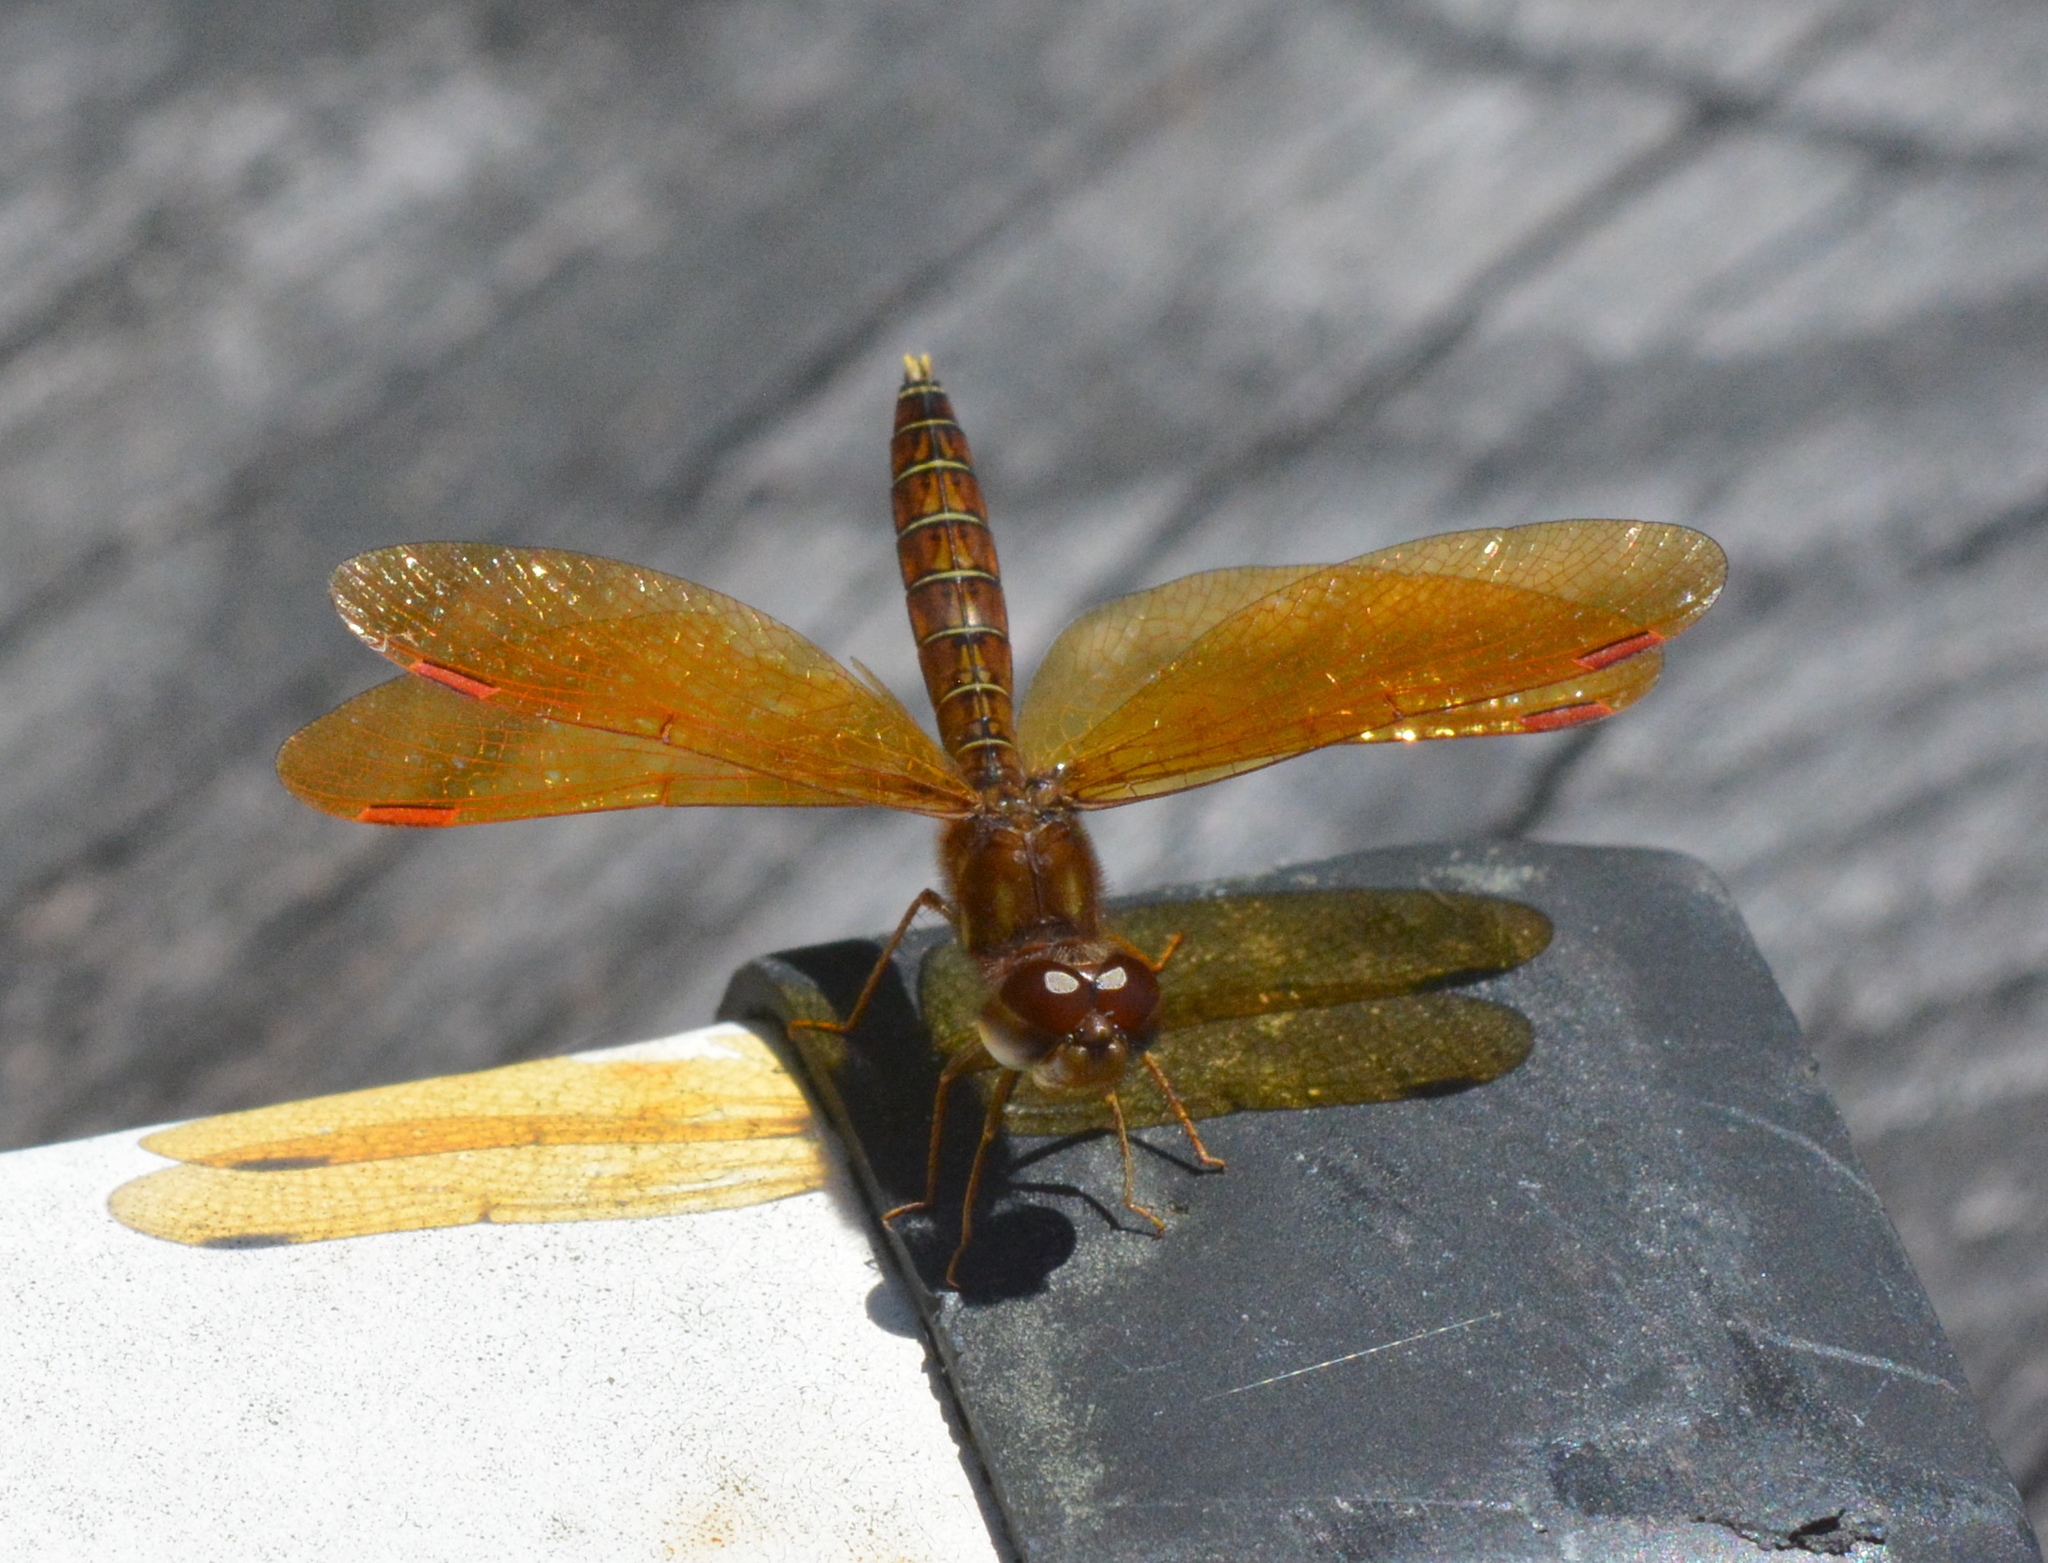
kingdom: Animalia
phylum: Arthropoda
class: Insecta
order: Odonata
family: Libellulidae
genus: Perithemis
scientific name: Perithemis tenera
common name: Eastern amberwing
